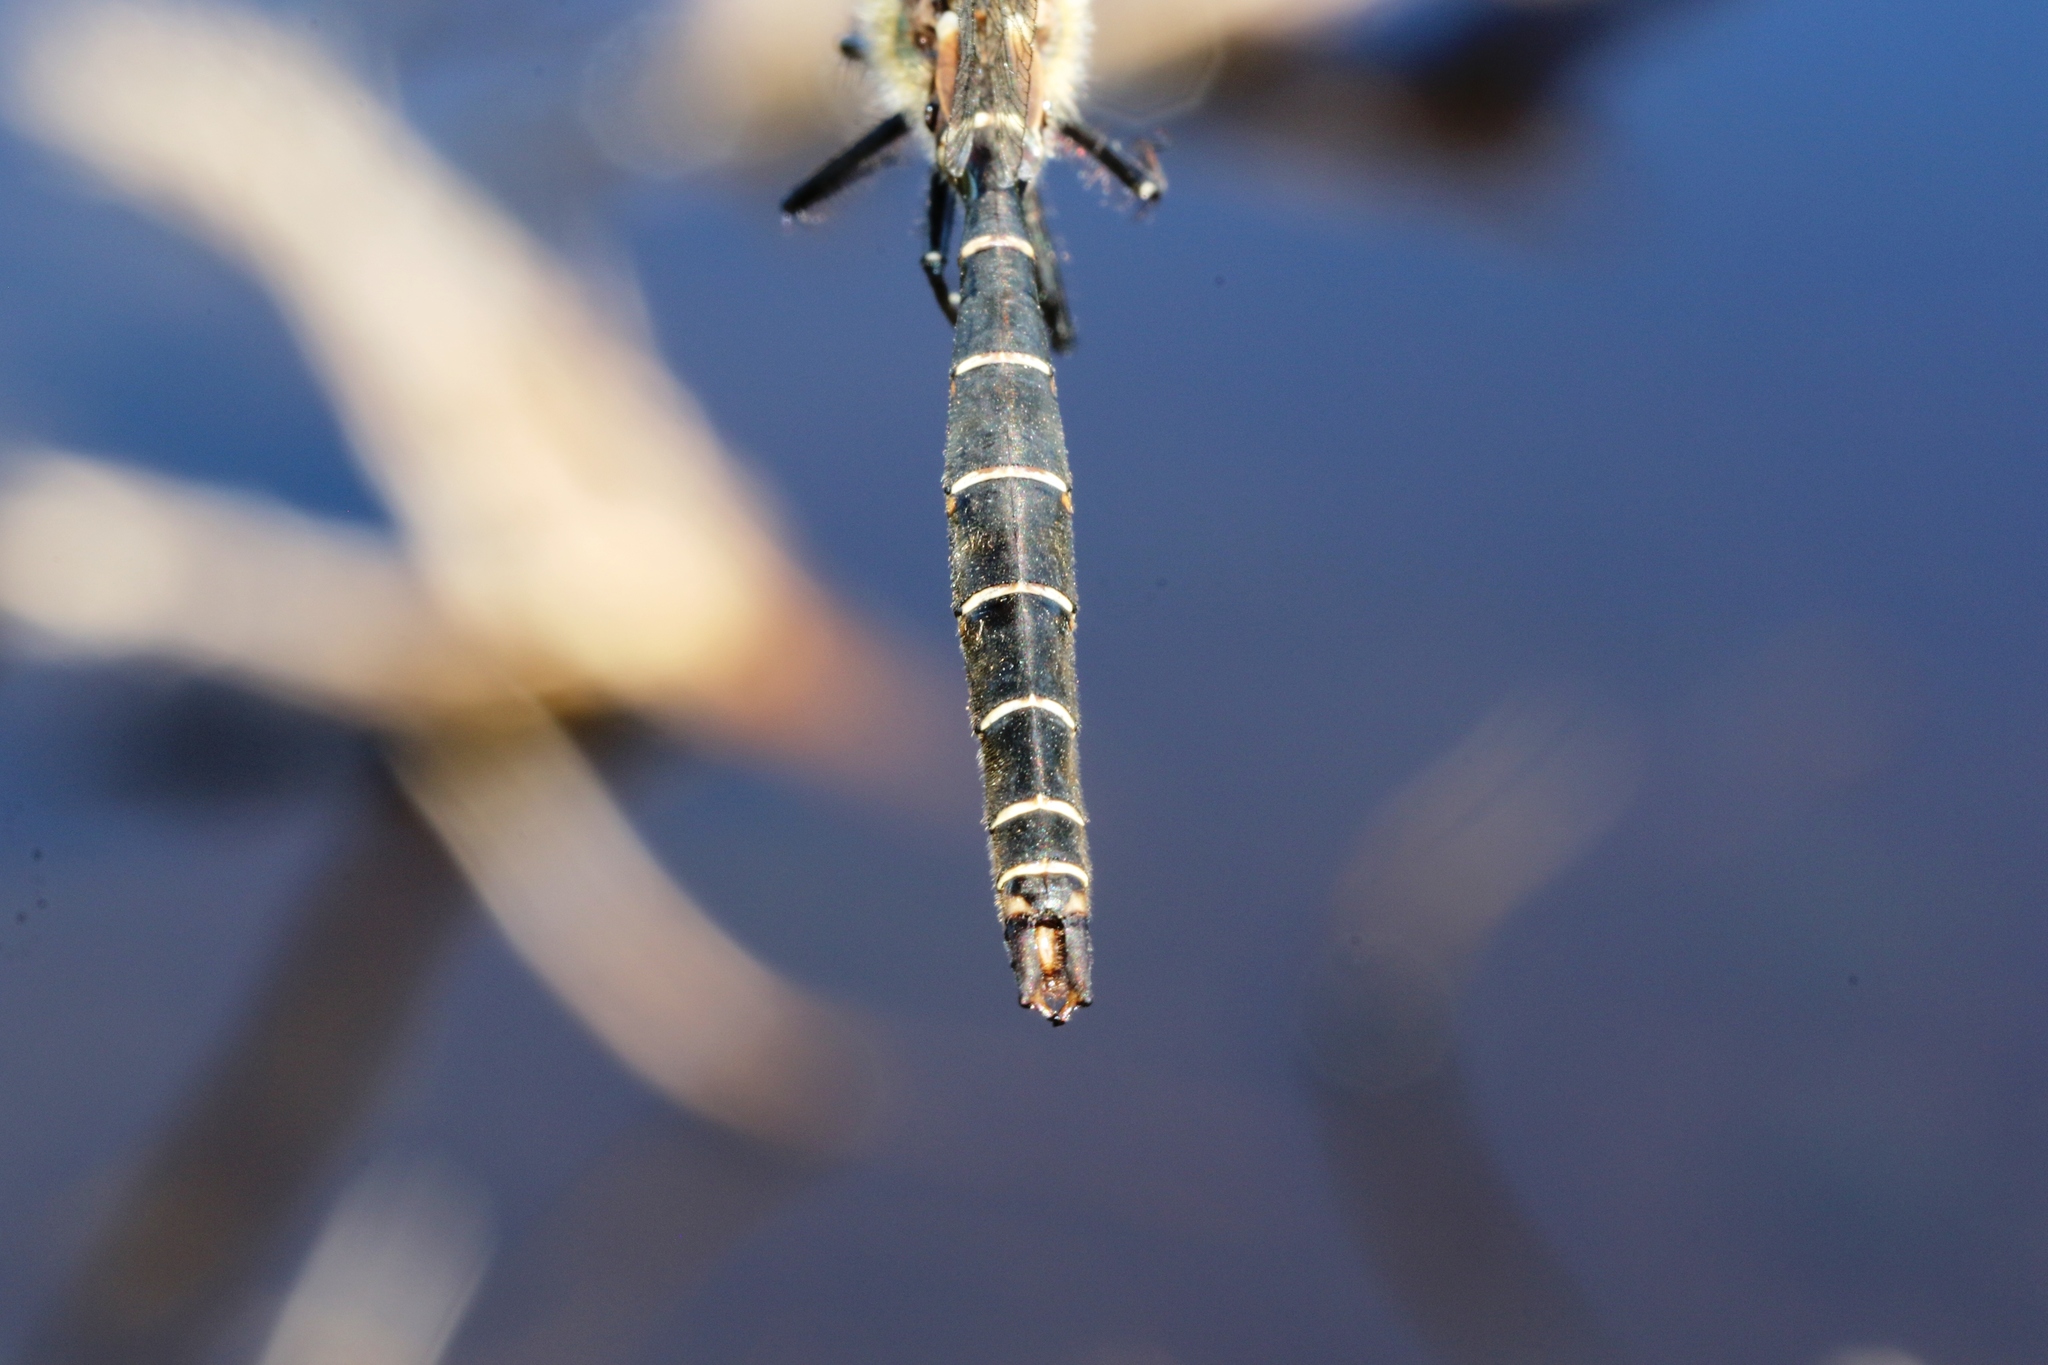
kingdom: Animalia
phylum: Arthropoda
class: Insecta
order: Odonata
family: Corduliidae
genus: Somatochlora
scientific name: Somatochlora albicincta
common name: Ringed emerald
